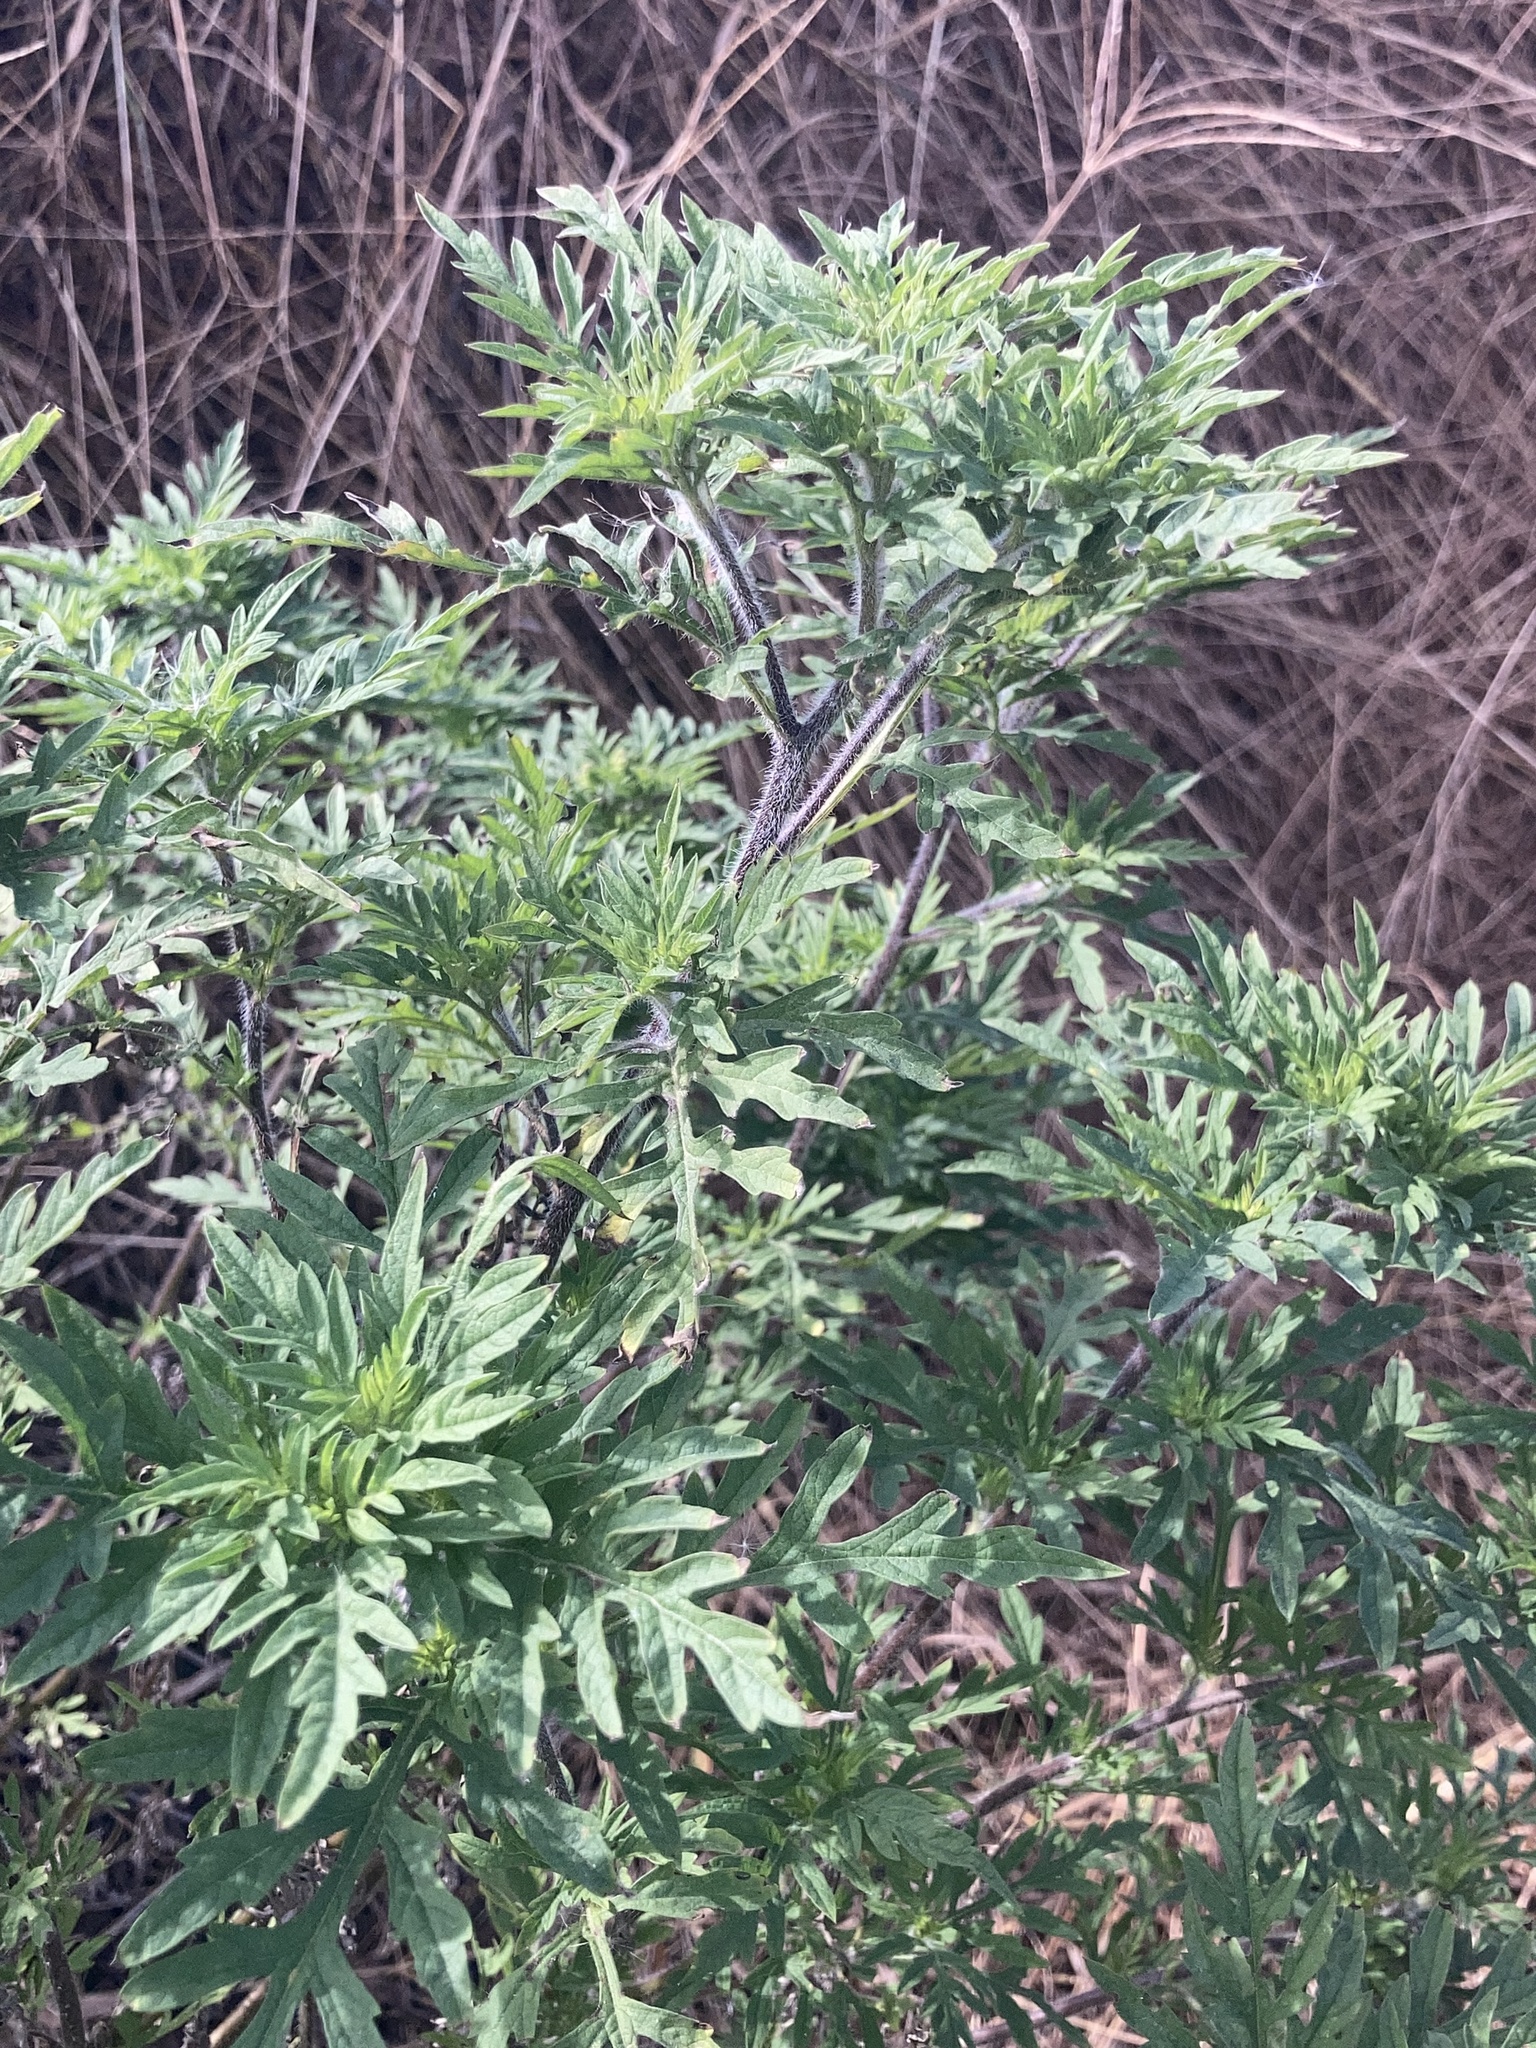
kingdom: Plantae
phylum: Tracheophyta
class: Magnoliopsida
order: Asterales
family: Asteraceae
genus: Ambrosia
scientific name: Ambrosia artemisiifolia
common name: Annual ragweed
